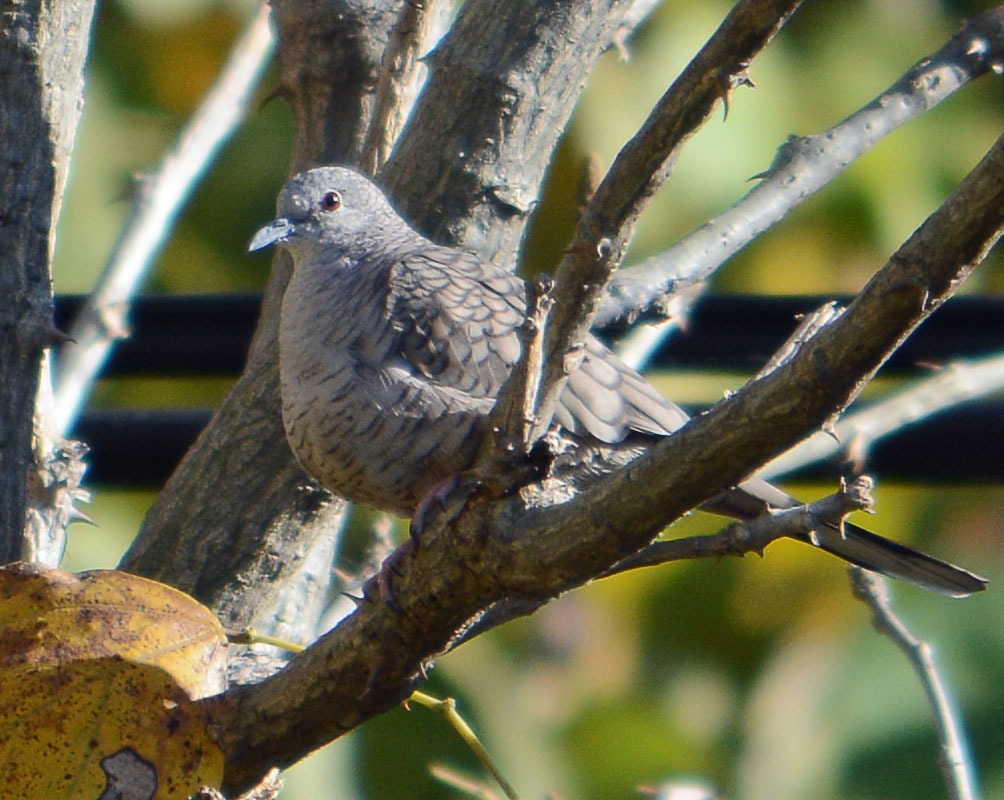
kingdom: Animalia
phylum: Chordata
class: Aves
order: Columbiformes
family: Columbidae
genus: Columbina
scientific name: Columbina inca
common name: Inca dove
